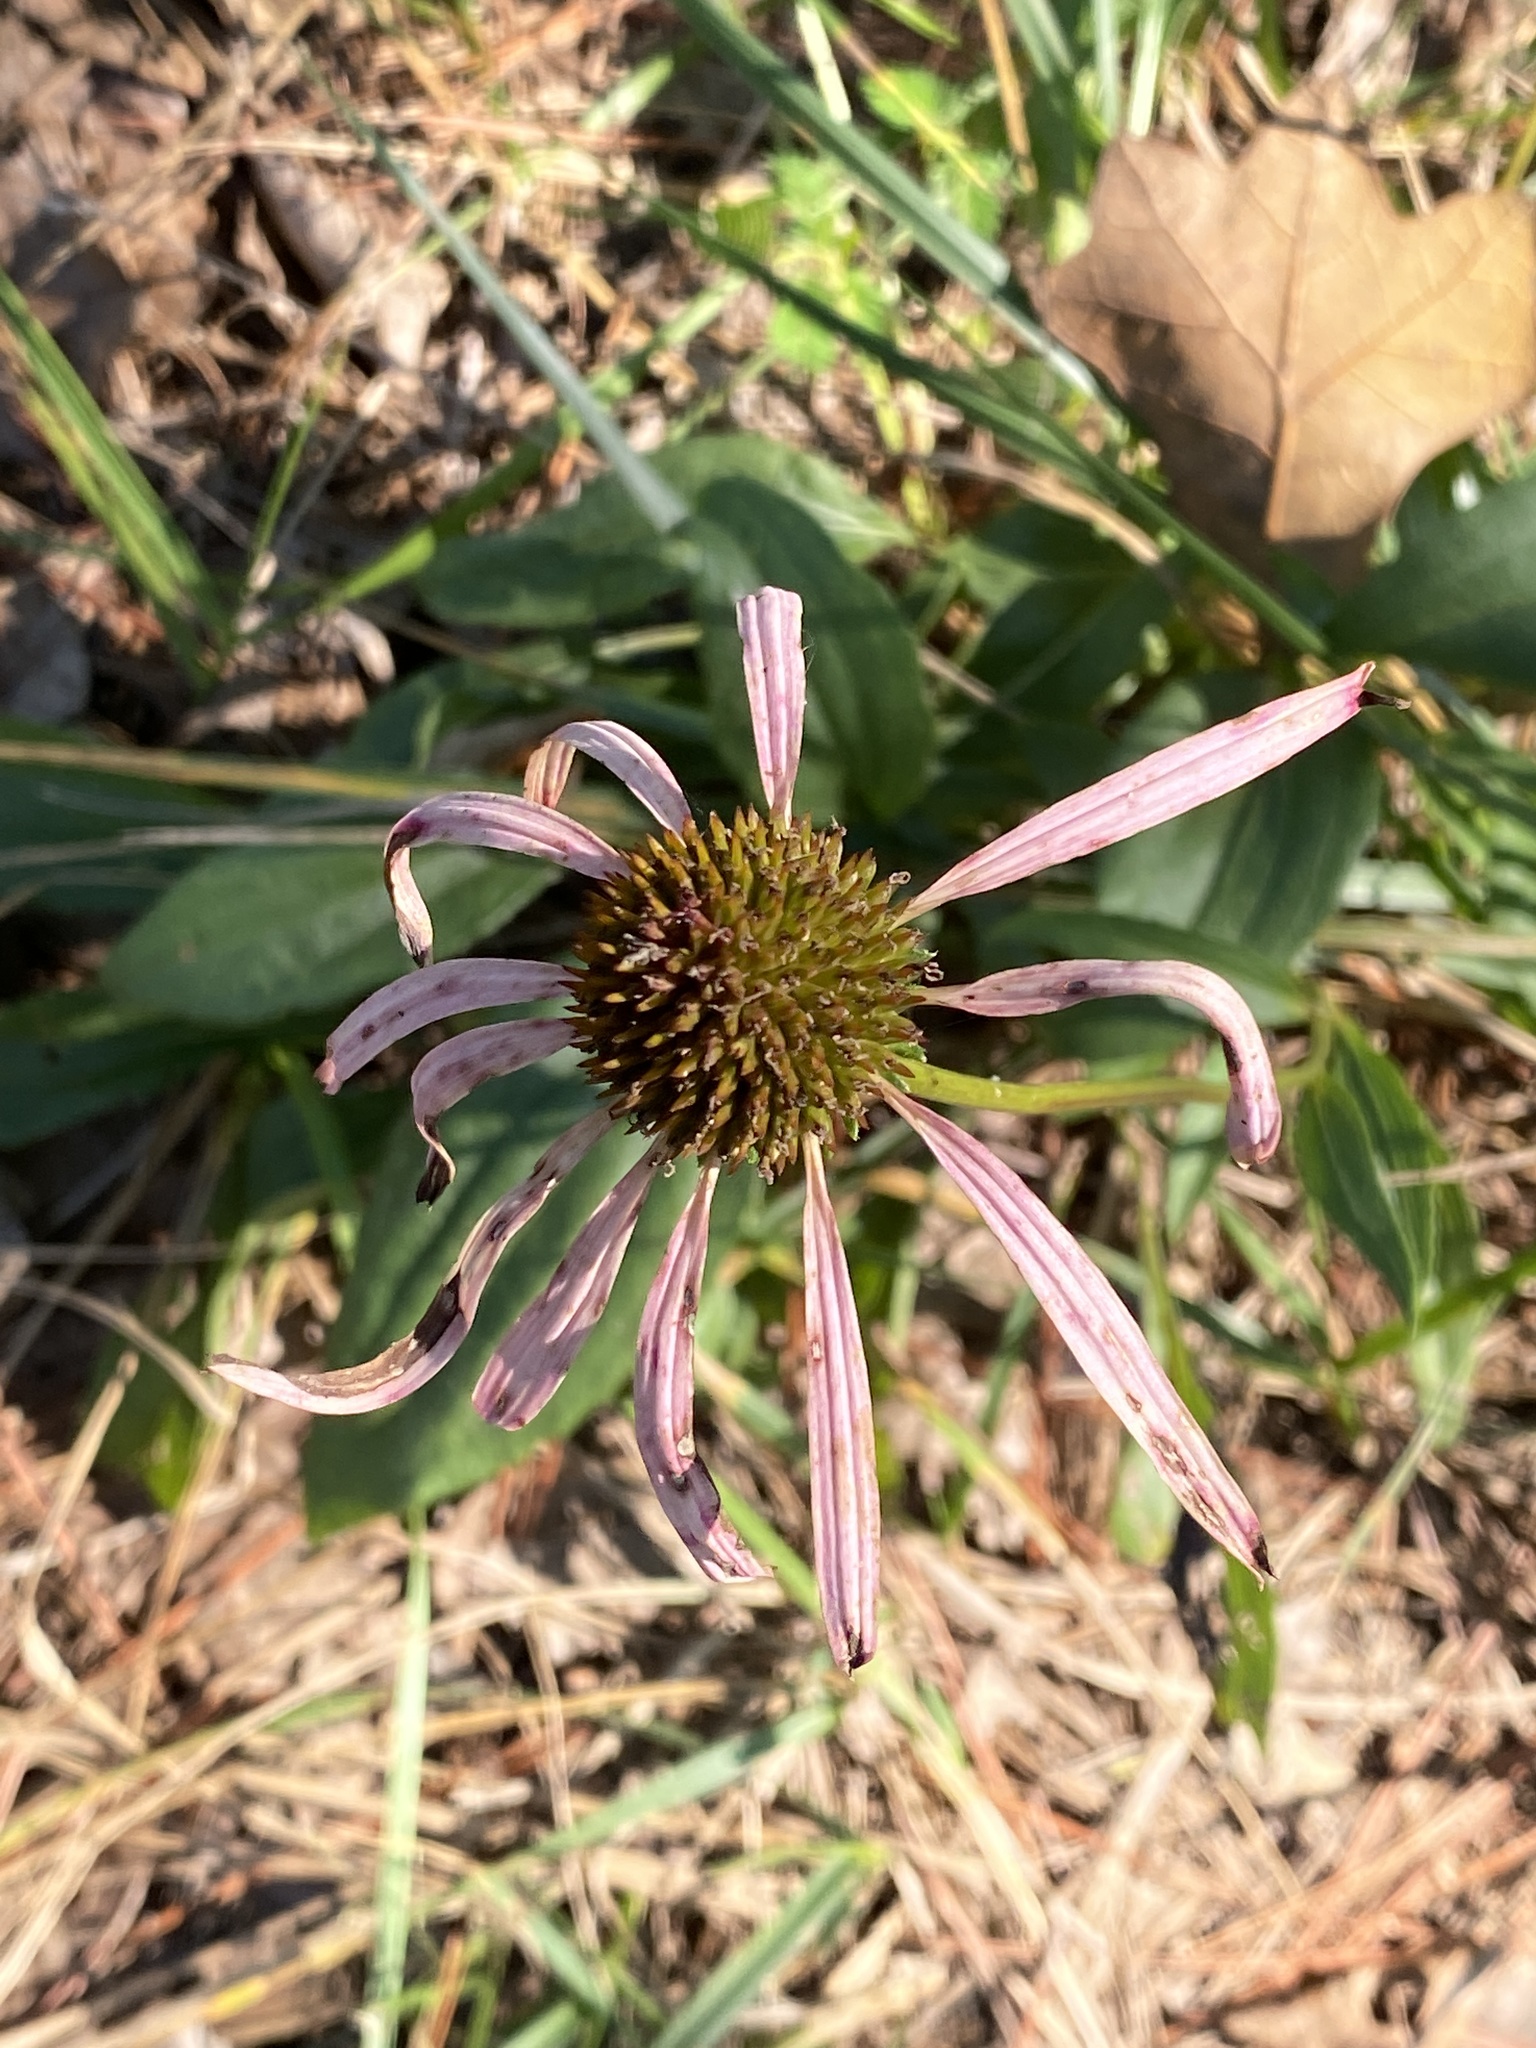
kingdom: Plantae
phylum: Tracheophyta
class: Magnoliopsida
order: Asterales
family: Asteraceae
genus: Echinacea
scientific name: Echinacea laevigata
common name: Smooth coneflower
